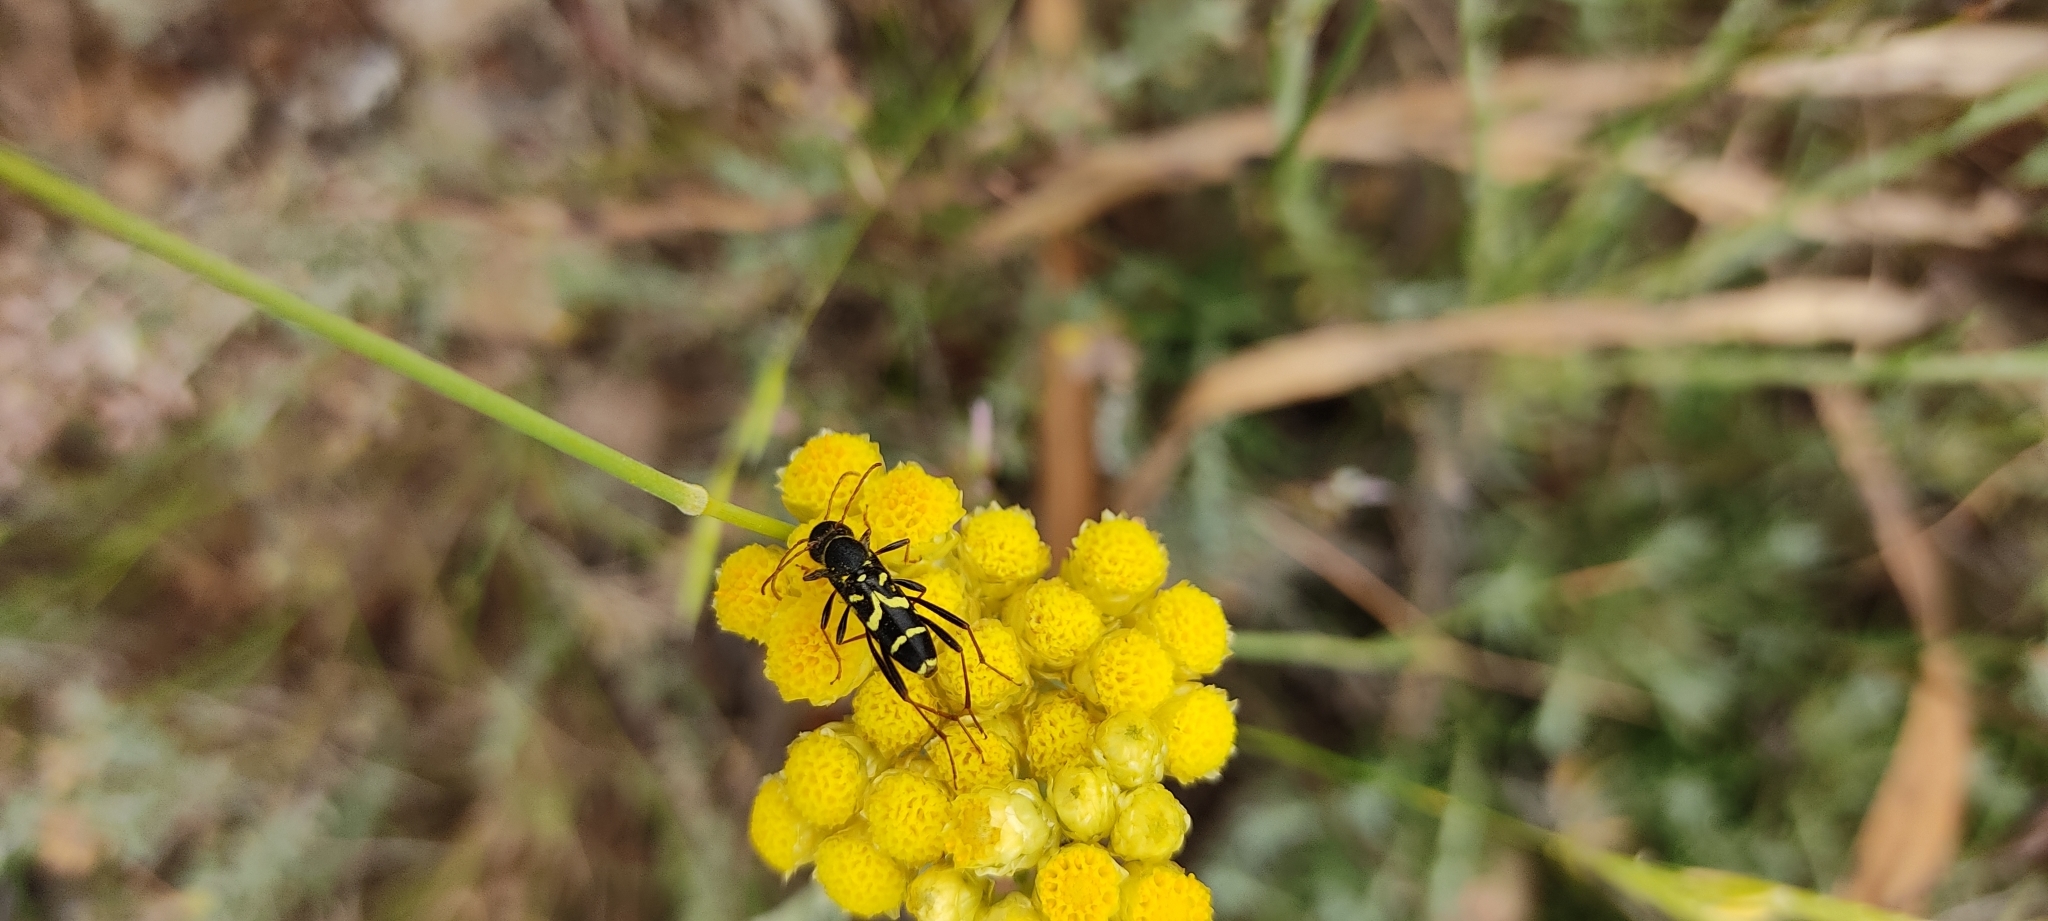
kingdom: Animalia
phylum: Arthropoda
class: Insecta
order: Coleoptera
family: Cerambycidae
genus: Clytus
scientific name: Clytus rhamni
